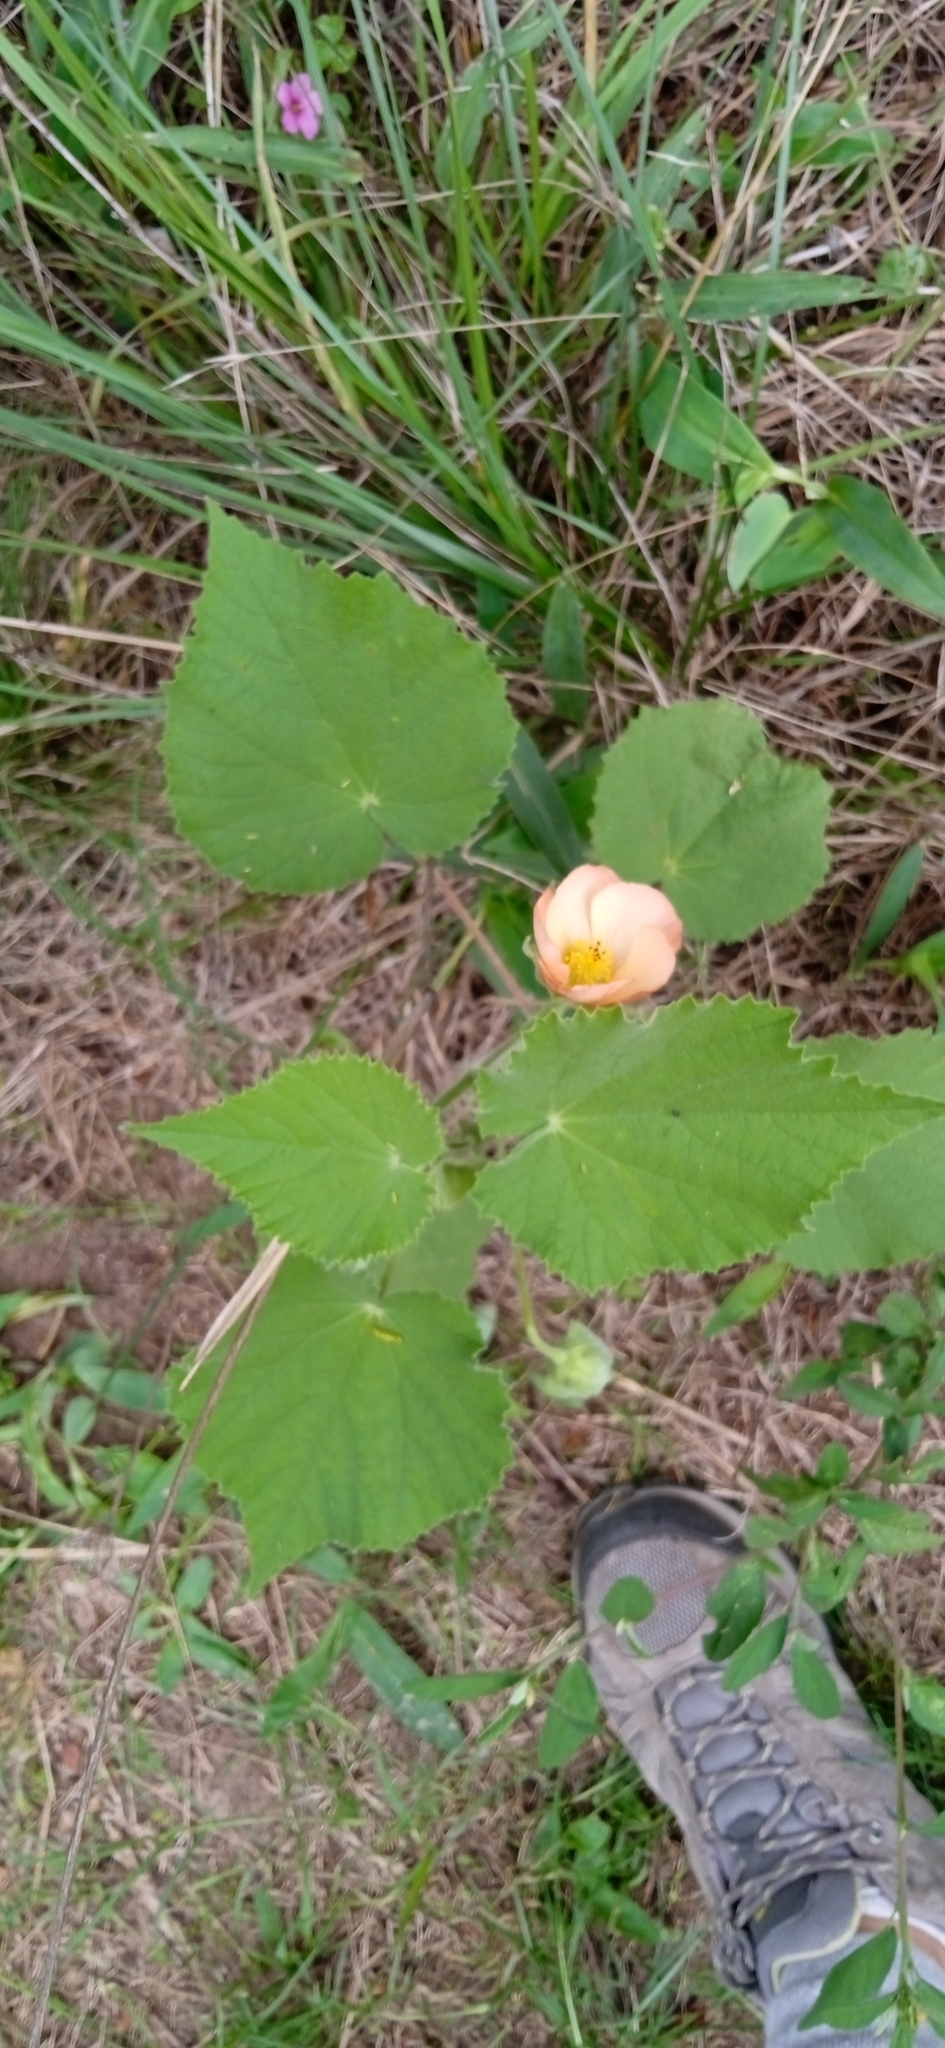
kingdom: Plantae
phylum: Tracheophyta
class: Magnoliopsida
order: Malvales
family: Malvaceae
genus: Callianthe
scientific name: Callianthe pauciflora
